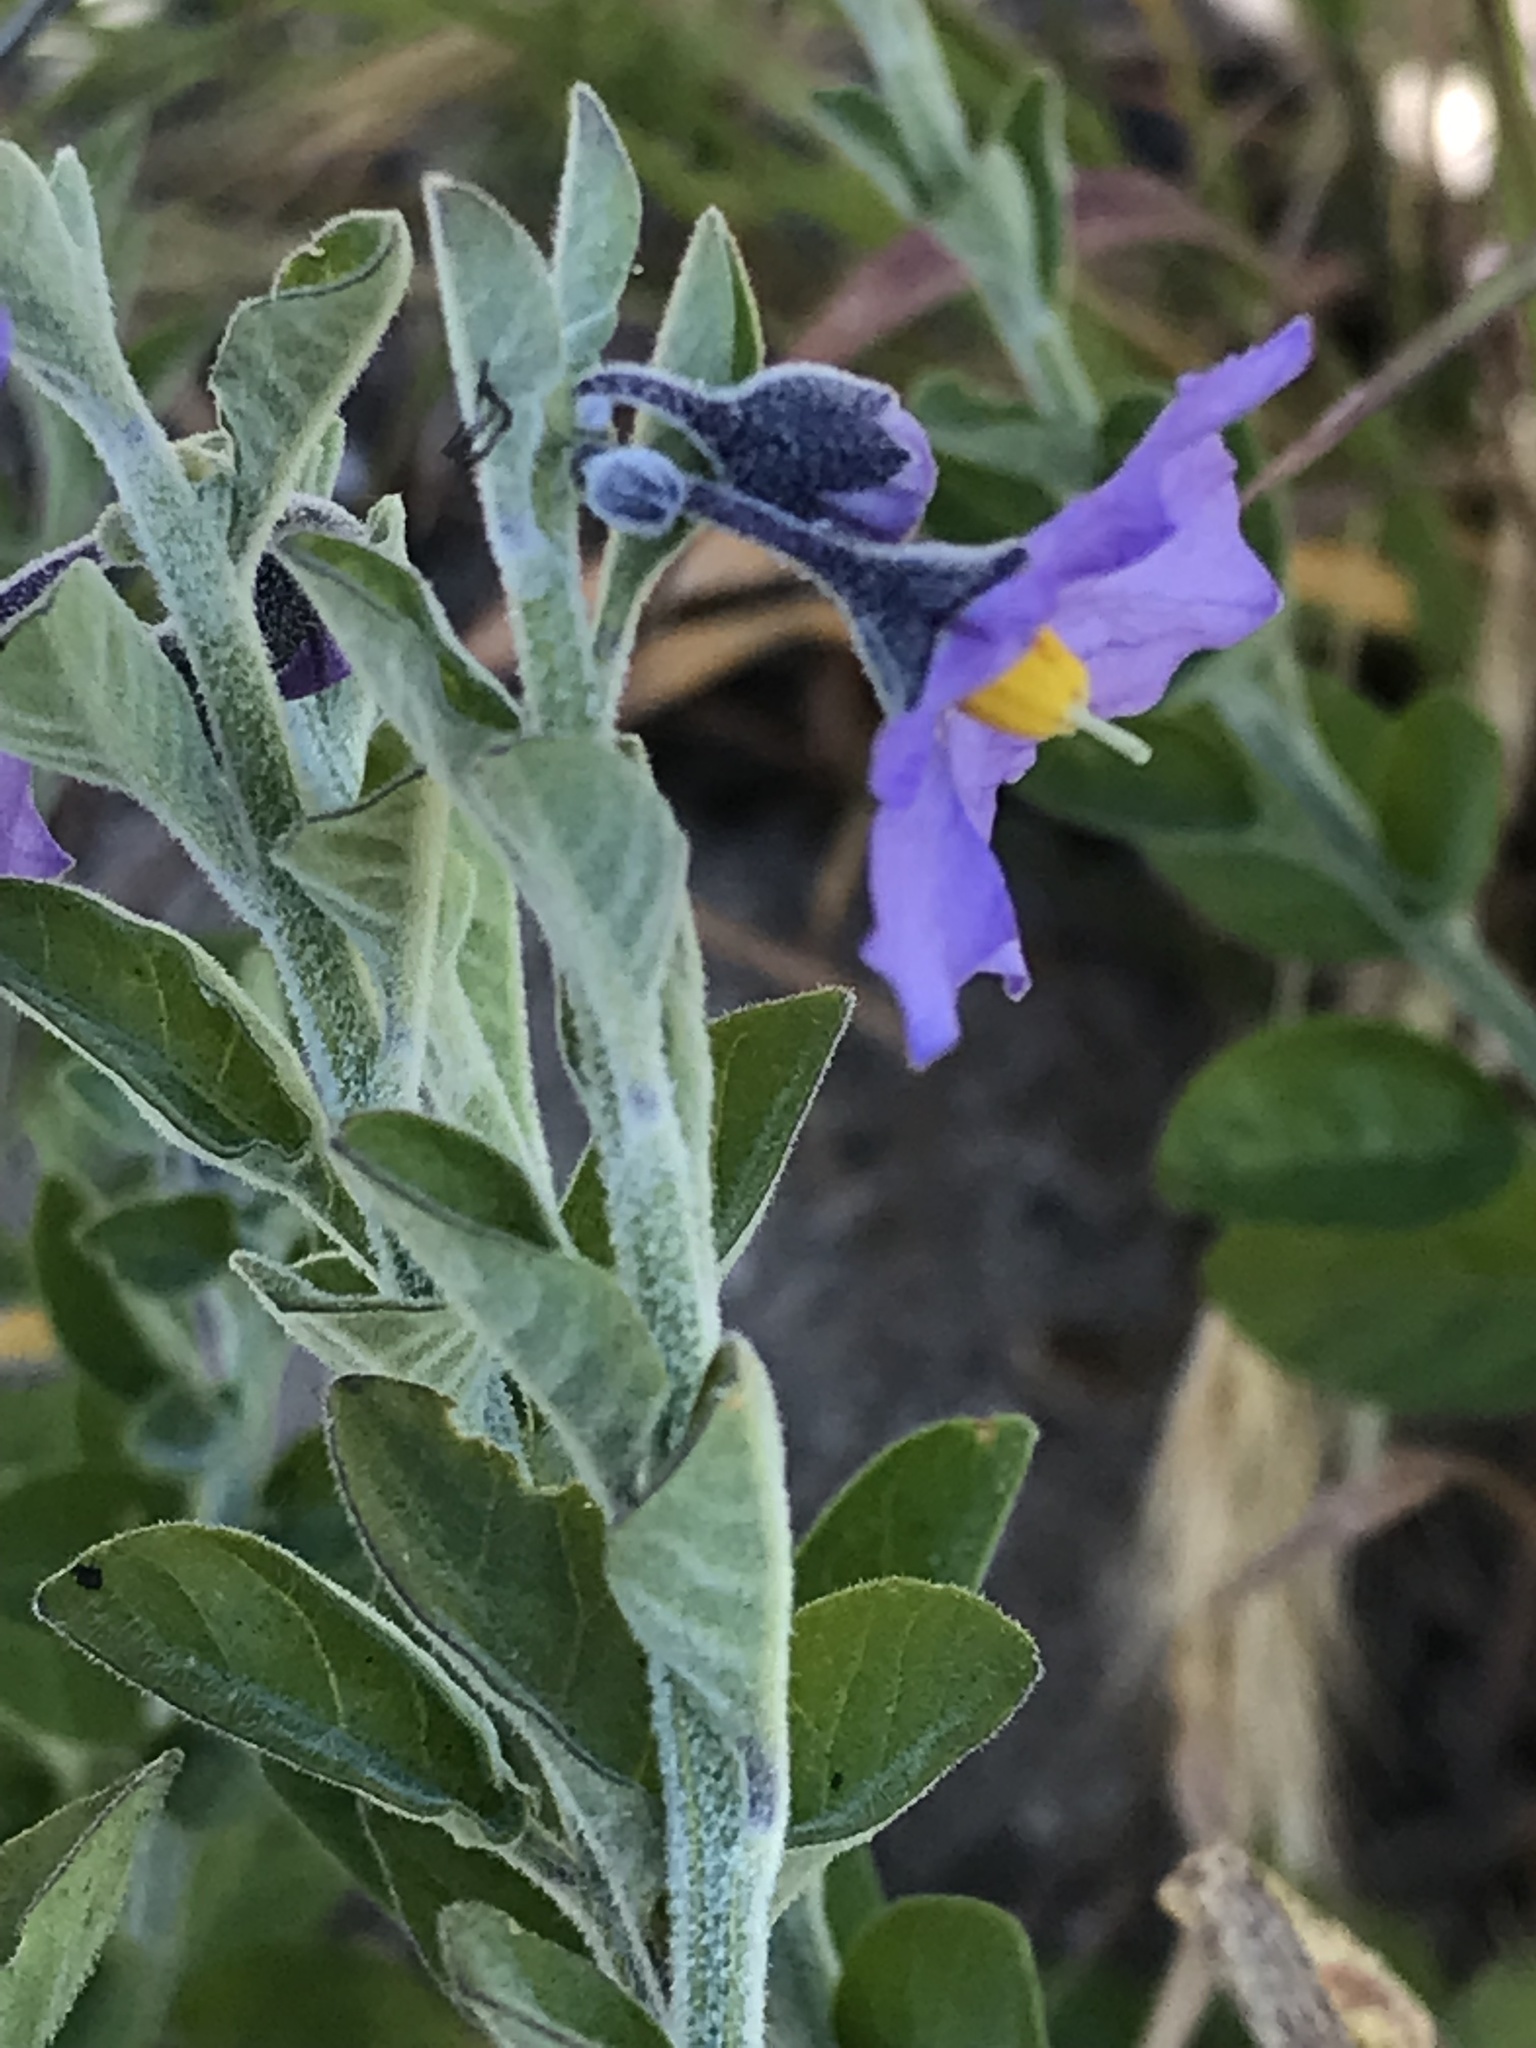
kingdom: Plantae
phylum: Tracheophyta
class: Magnoliopsida
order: Solanales
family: Solanaceae
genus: Solanum
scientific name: Solanum umbelliferum
